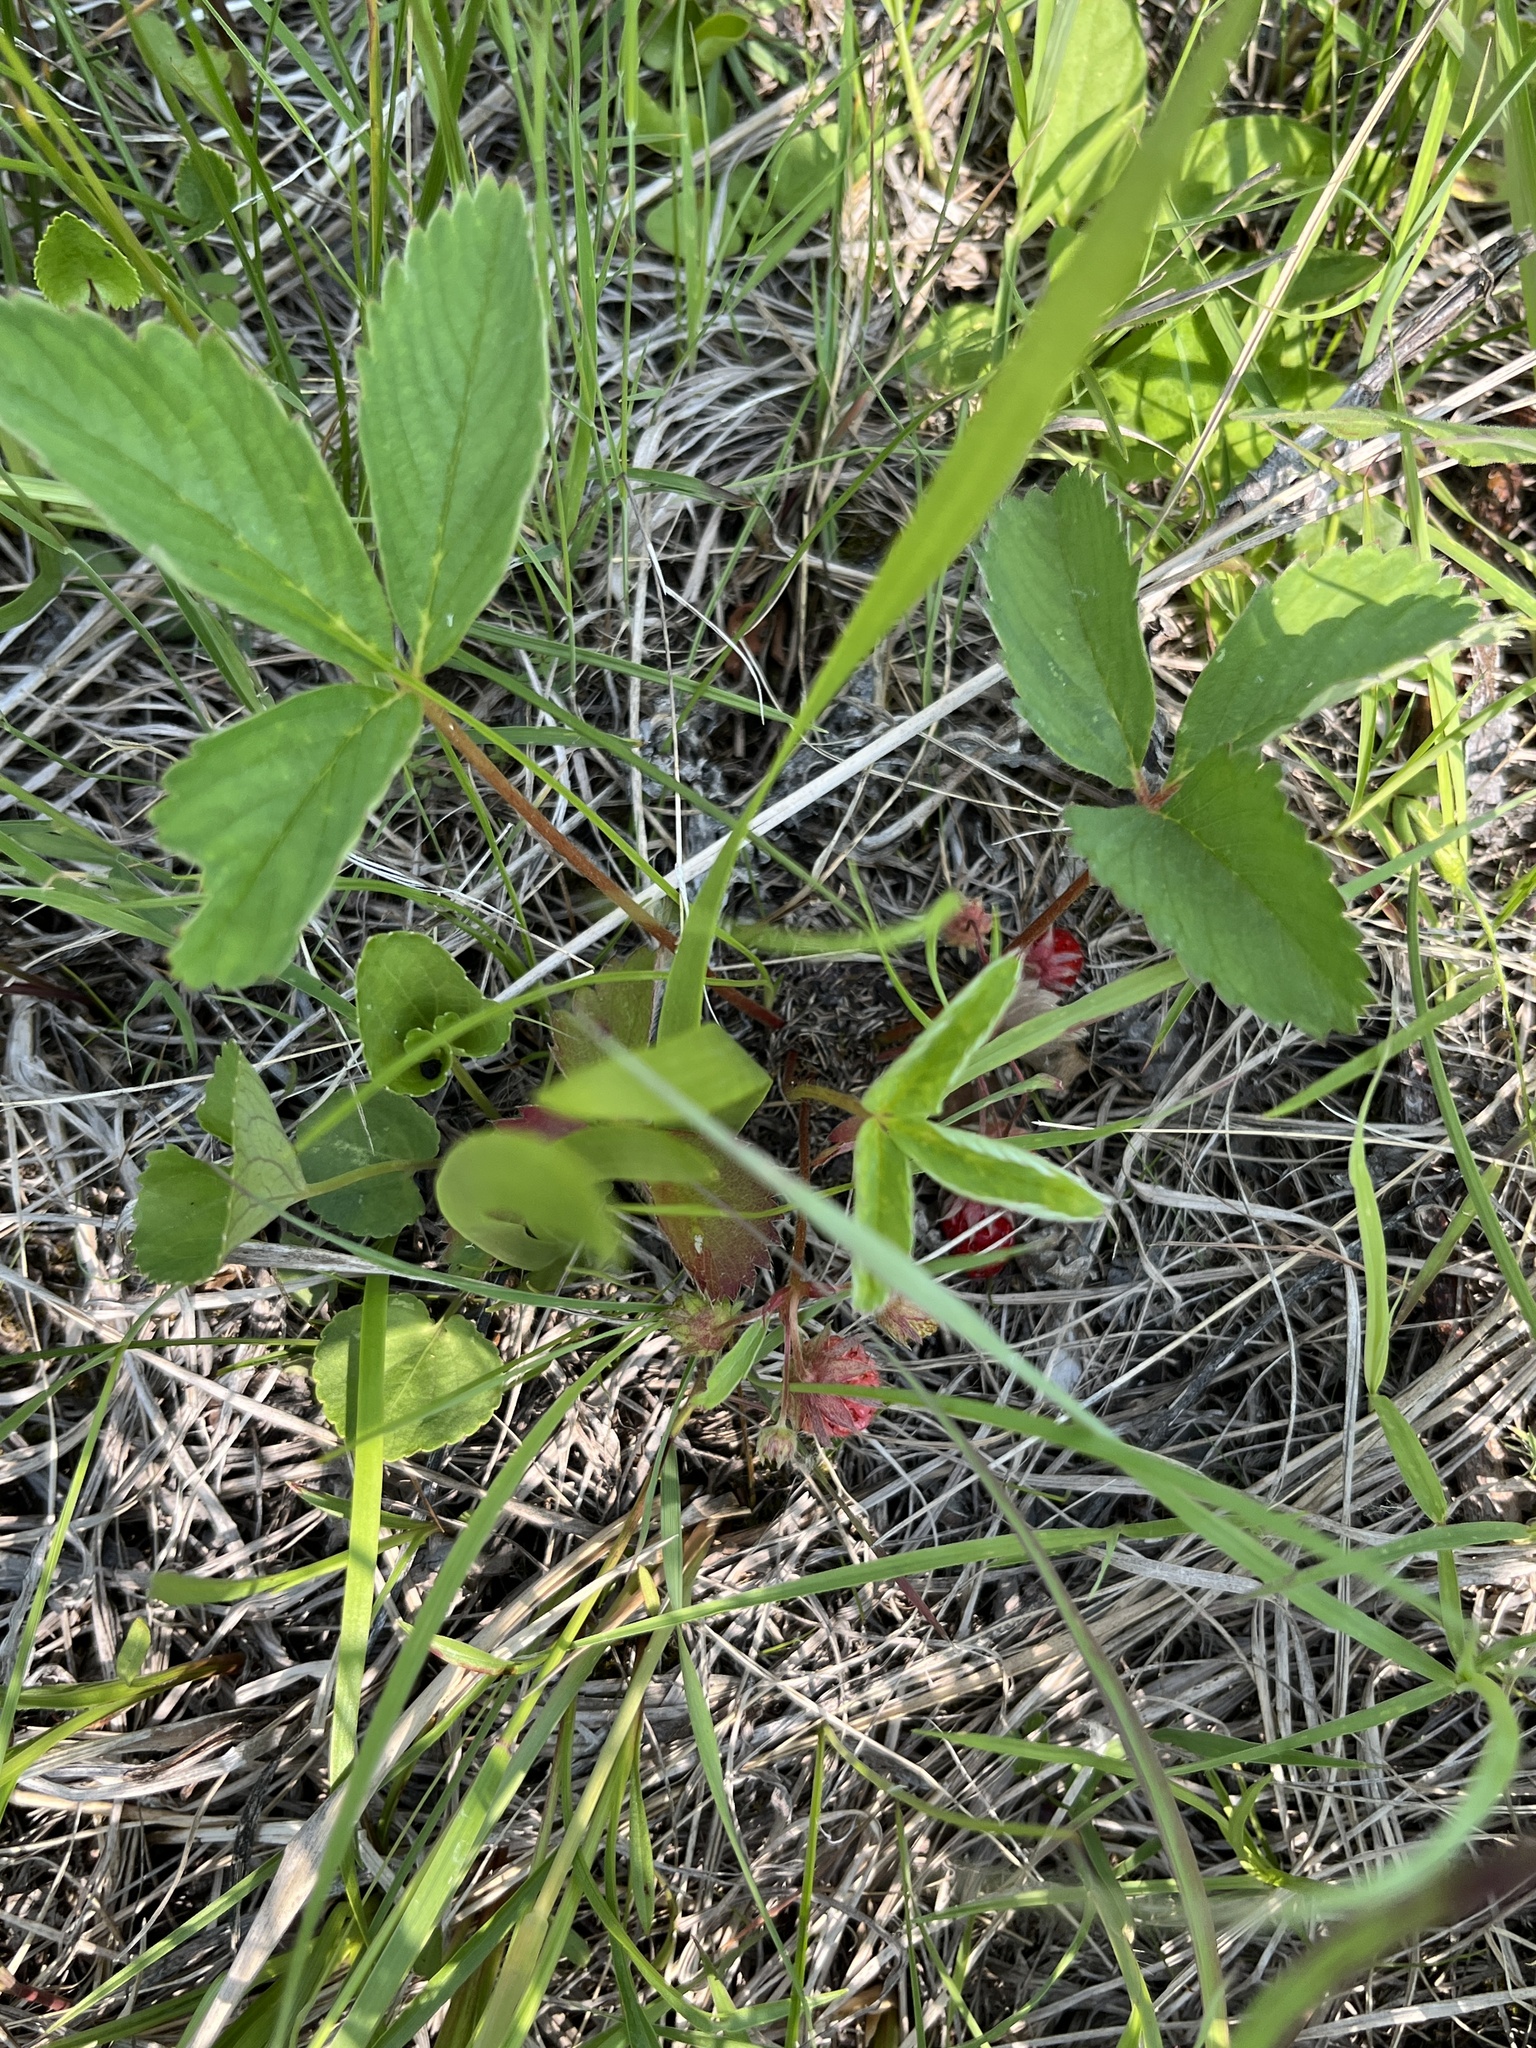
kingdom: Plantae
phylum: Tracheophyta
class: Magnoliopsida
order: Rosales
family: Rosaceae
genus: Fragaria
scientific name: Fragaria virginiana
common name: Thickleaved wild strawberry
